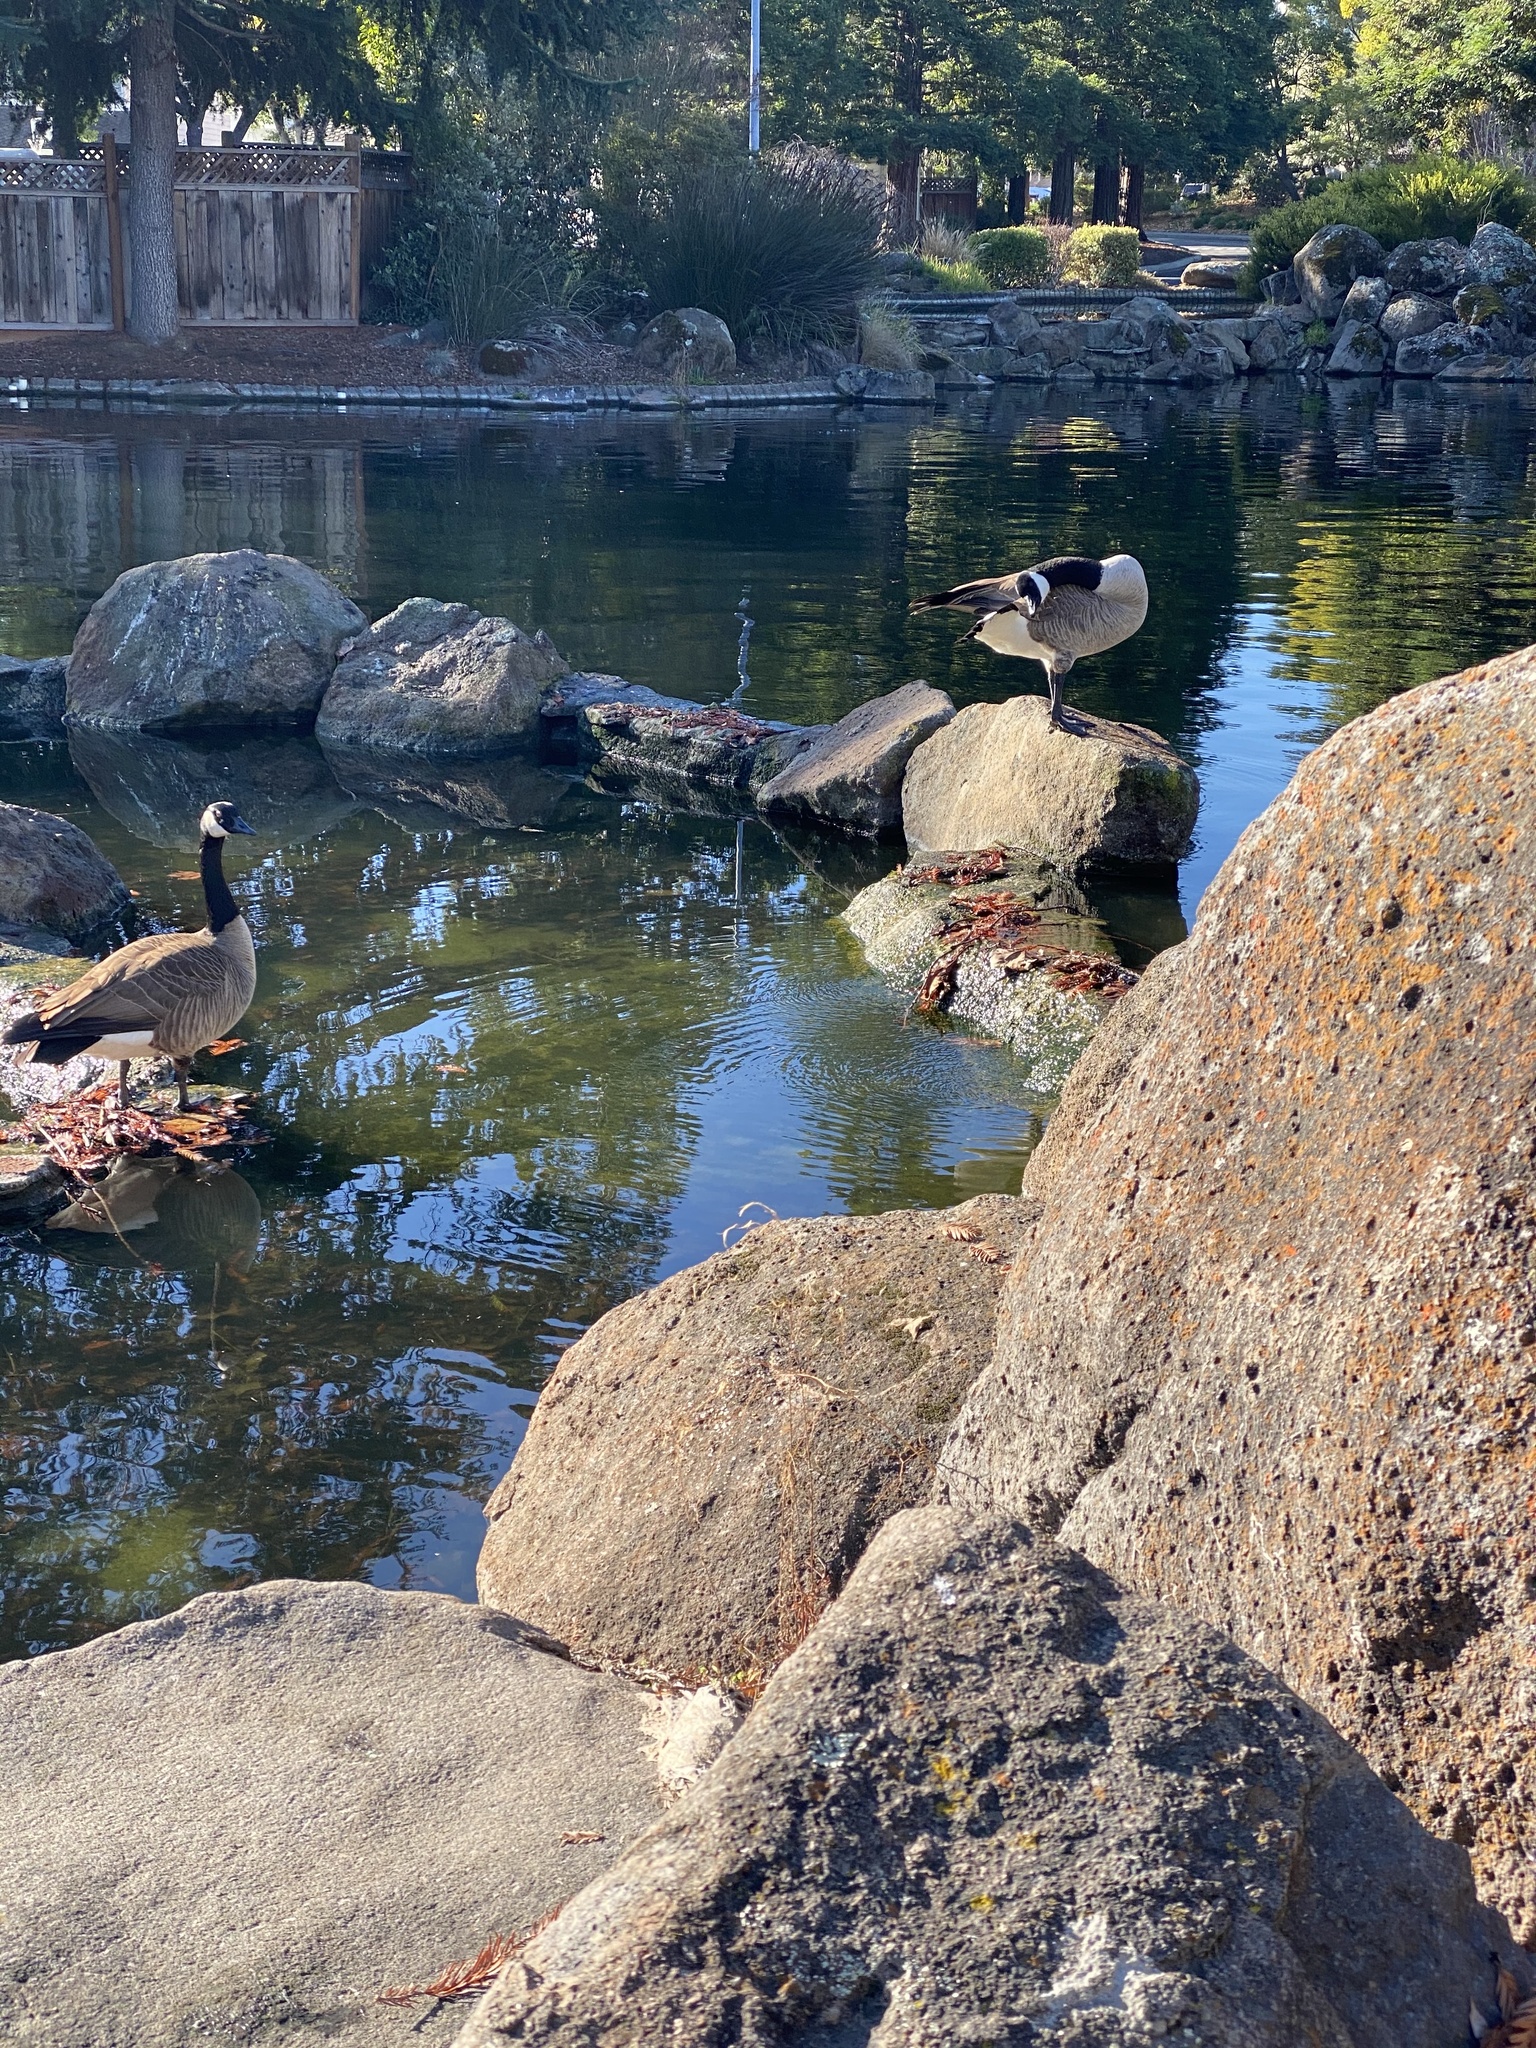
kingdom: Animalia
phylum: Chordata
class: Aves
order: Anseriformes
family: Anatidae
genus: Branta
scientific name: Branta canadensis
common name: Canada goose
